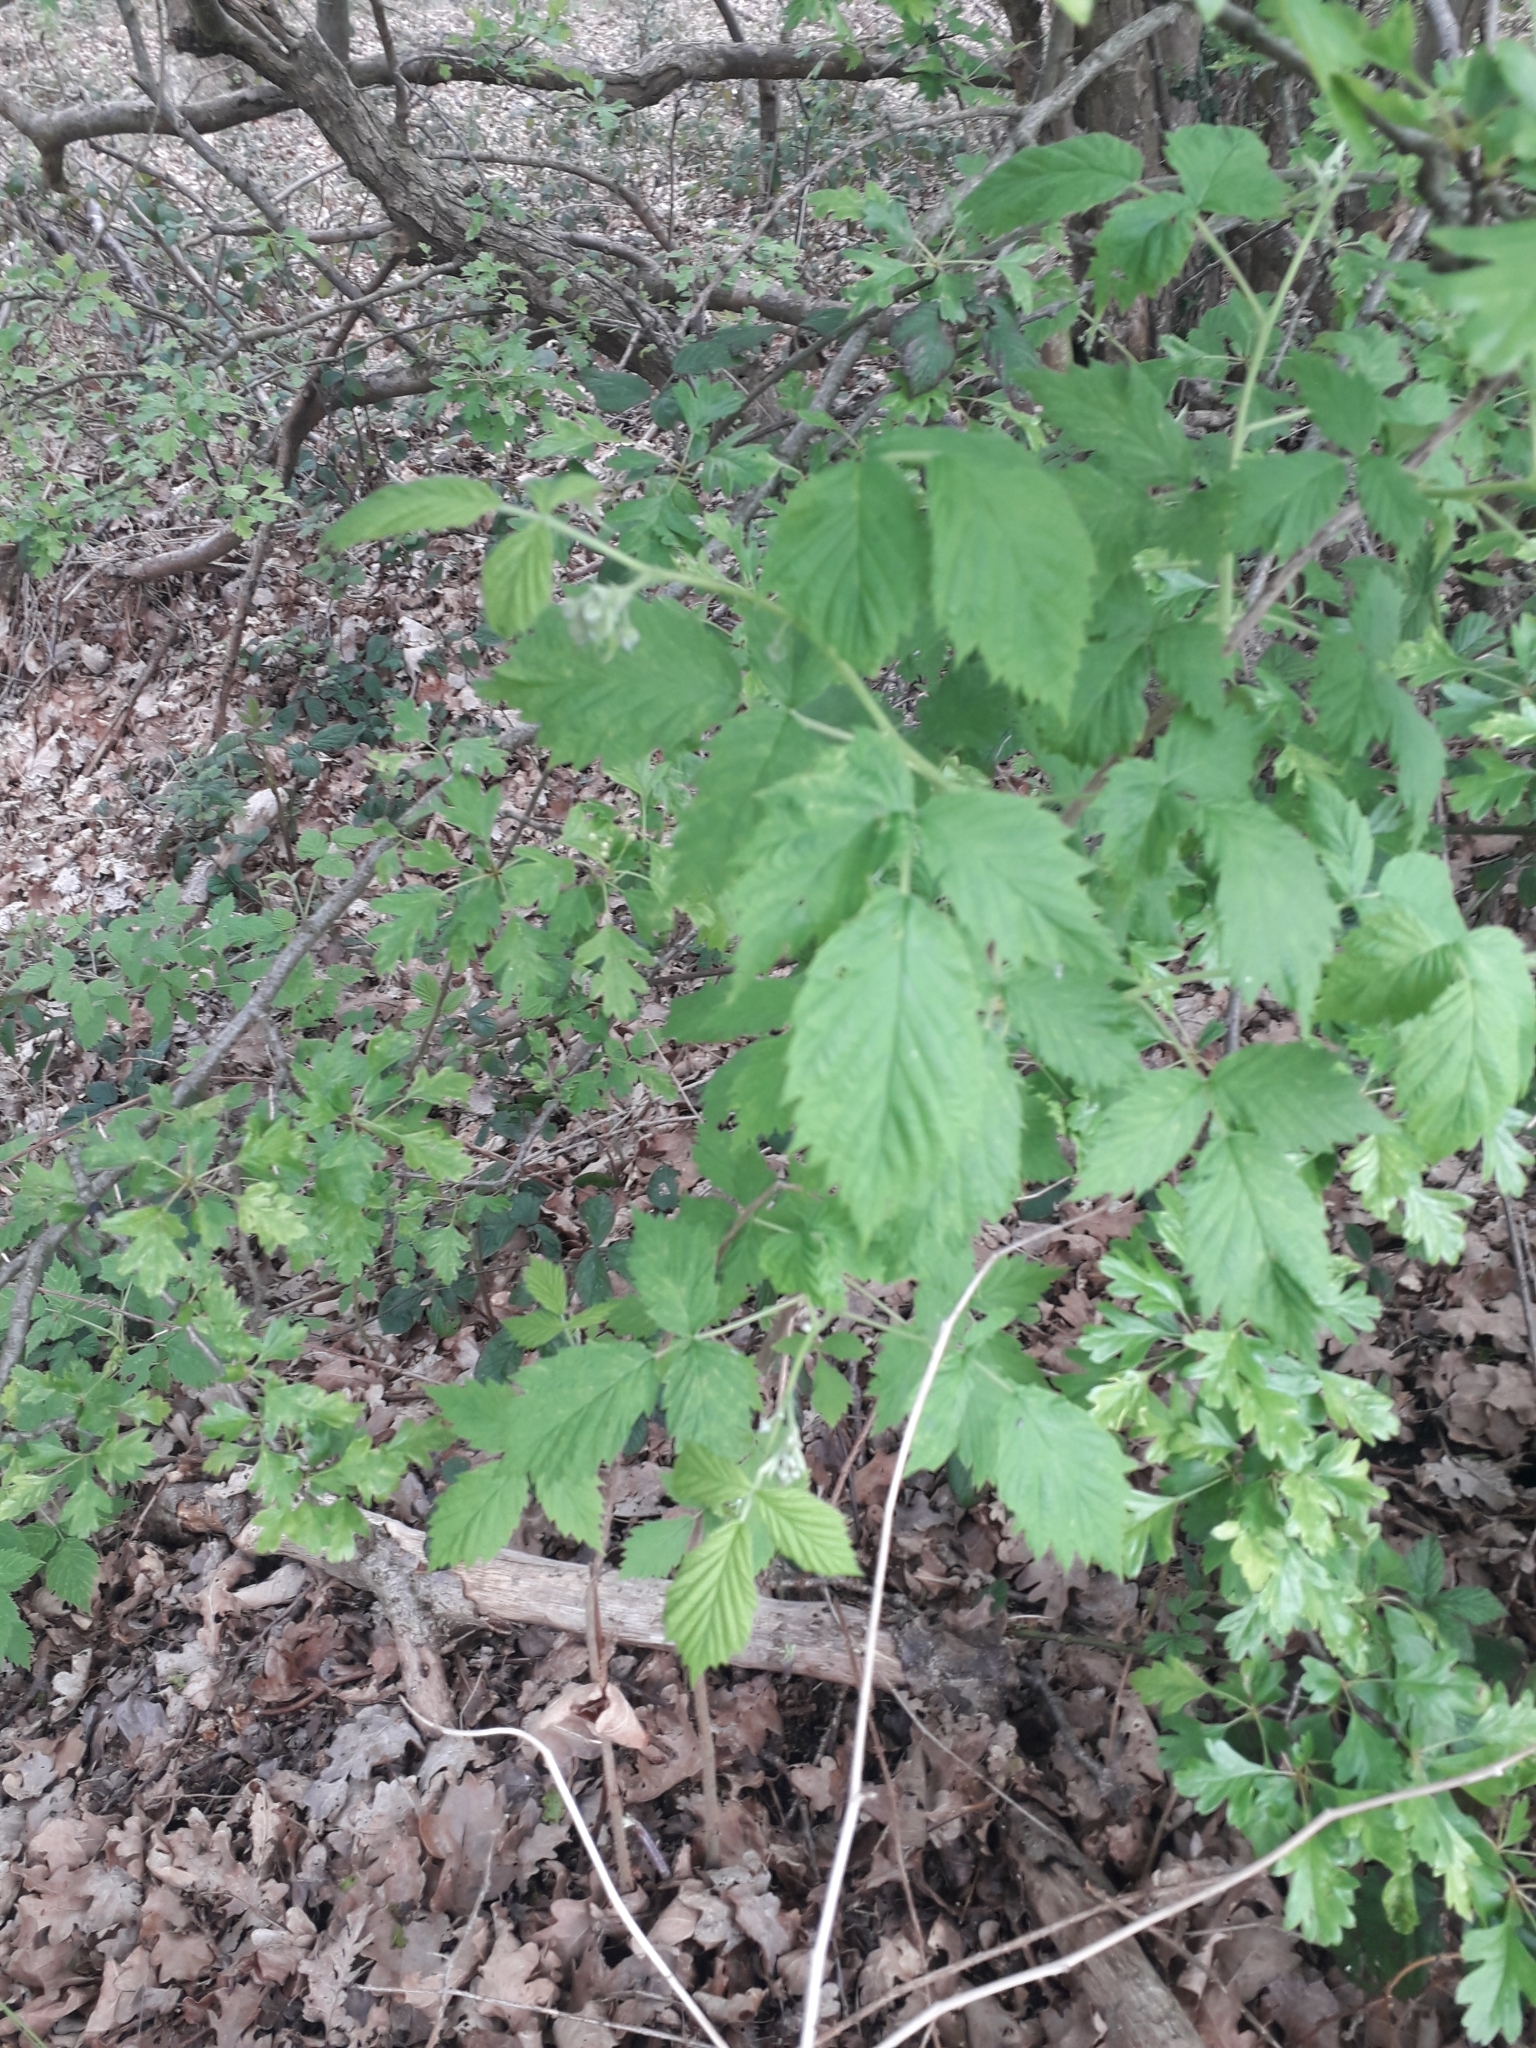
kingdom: Plantae
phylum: Tracheophyta
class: Magnoliopsida
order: Rosales
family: Rosaceae
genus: Rubus
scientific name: Rubus idaeus
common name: Raspberry
